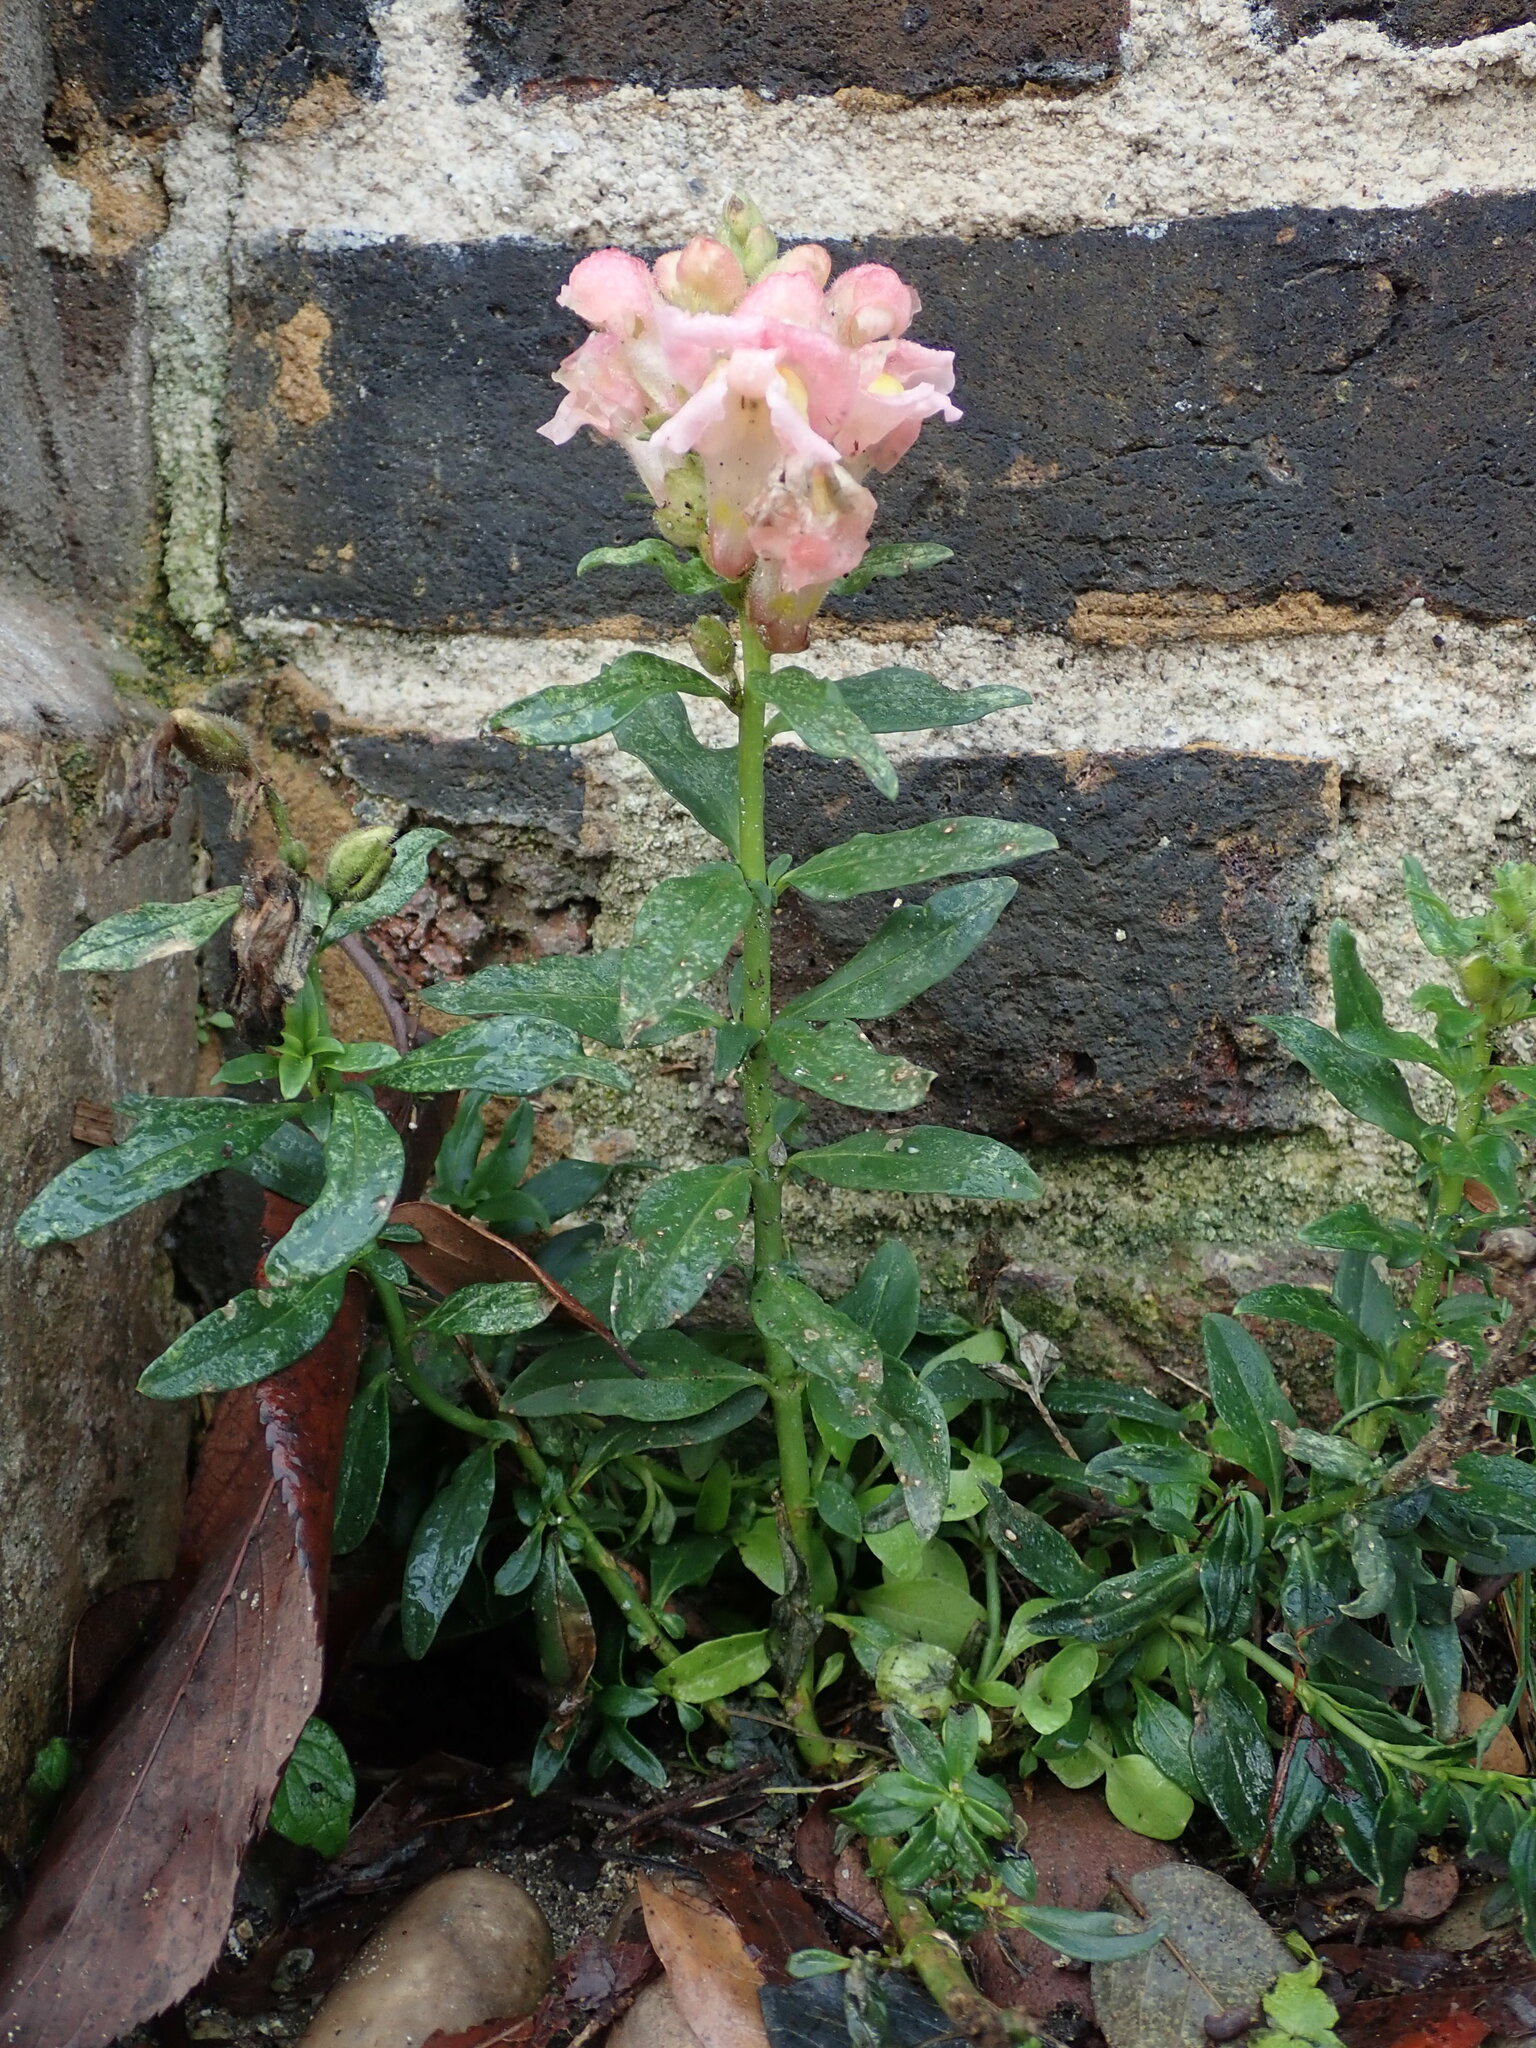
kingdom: Plantae
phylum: Tracheophyta
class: Magnoliopsida
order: Lamiales
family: Plantaginaceae
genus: Antirrhinum
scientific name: Antirrhinum majus
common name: Snapdragon
